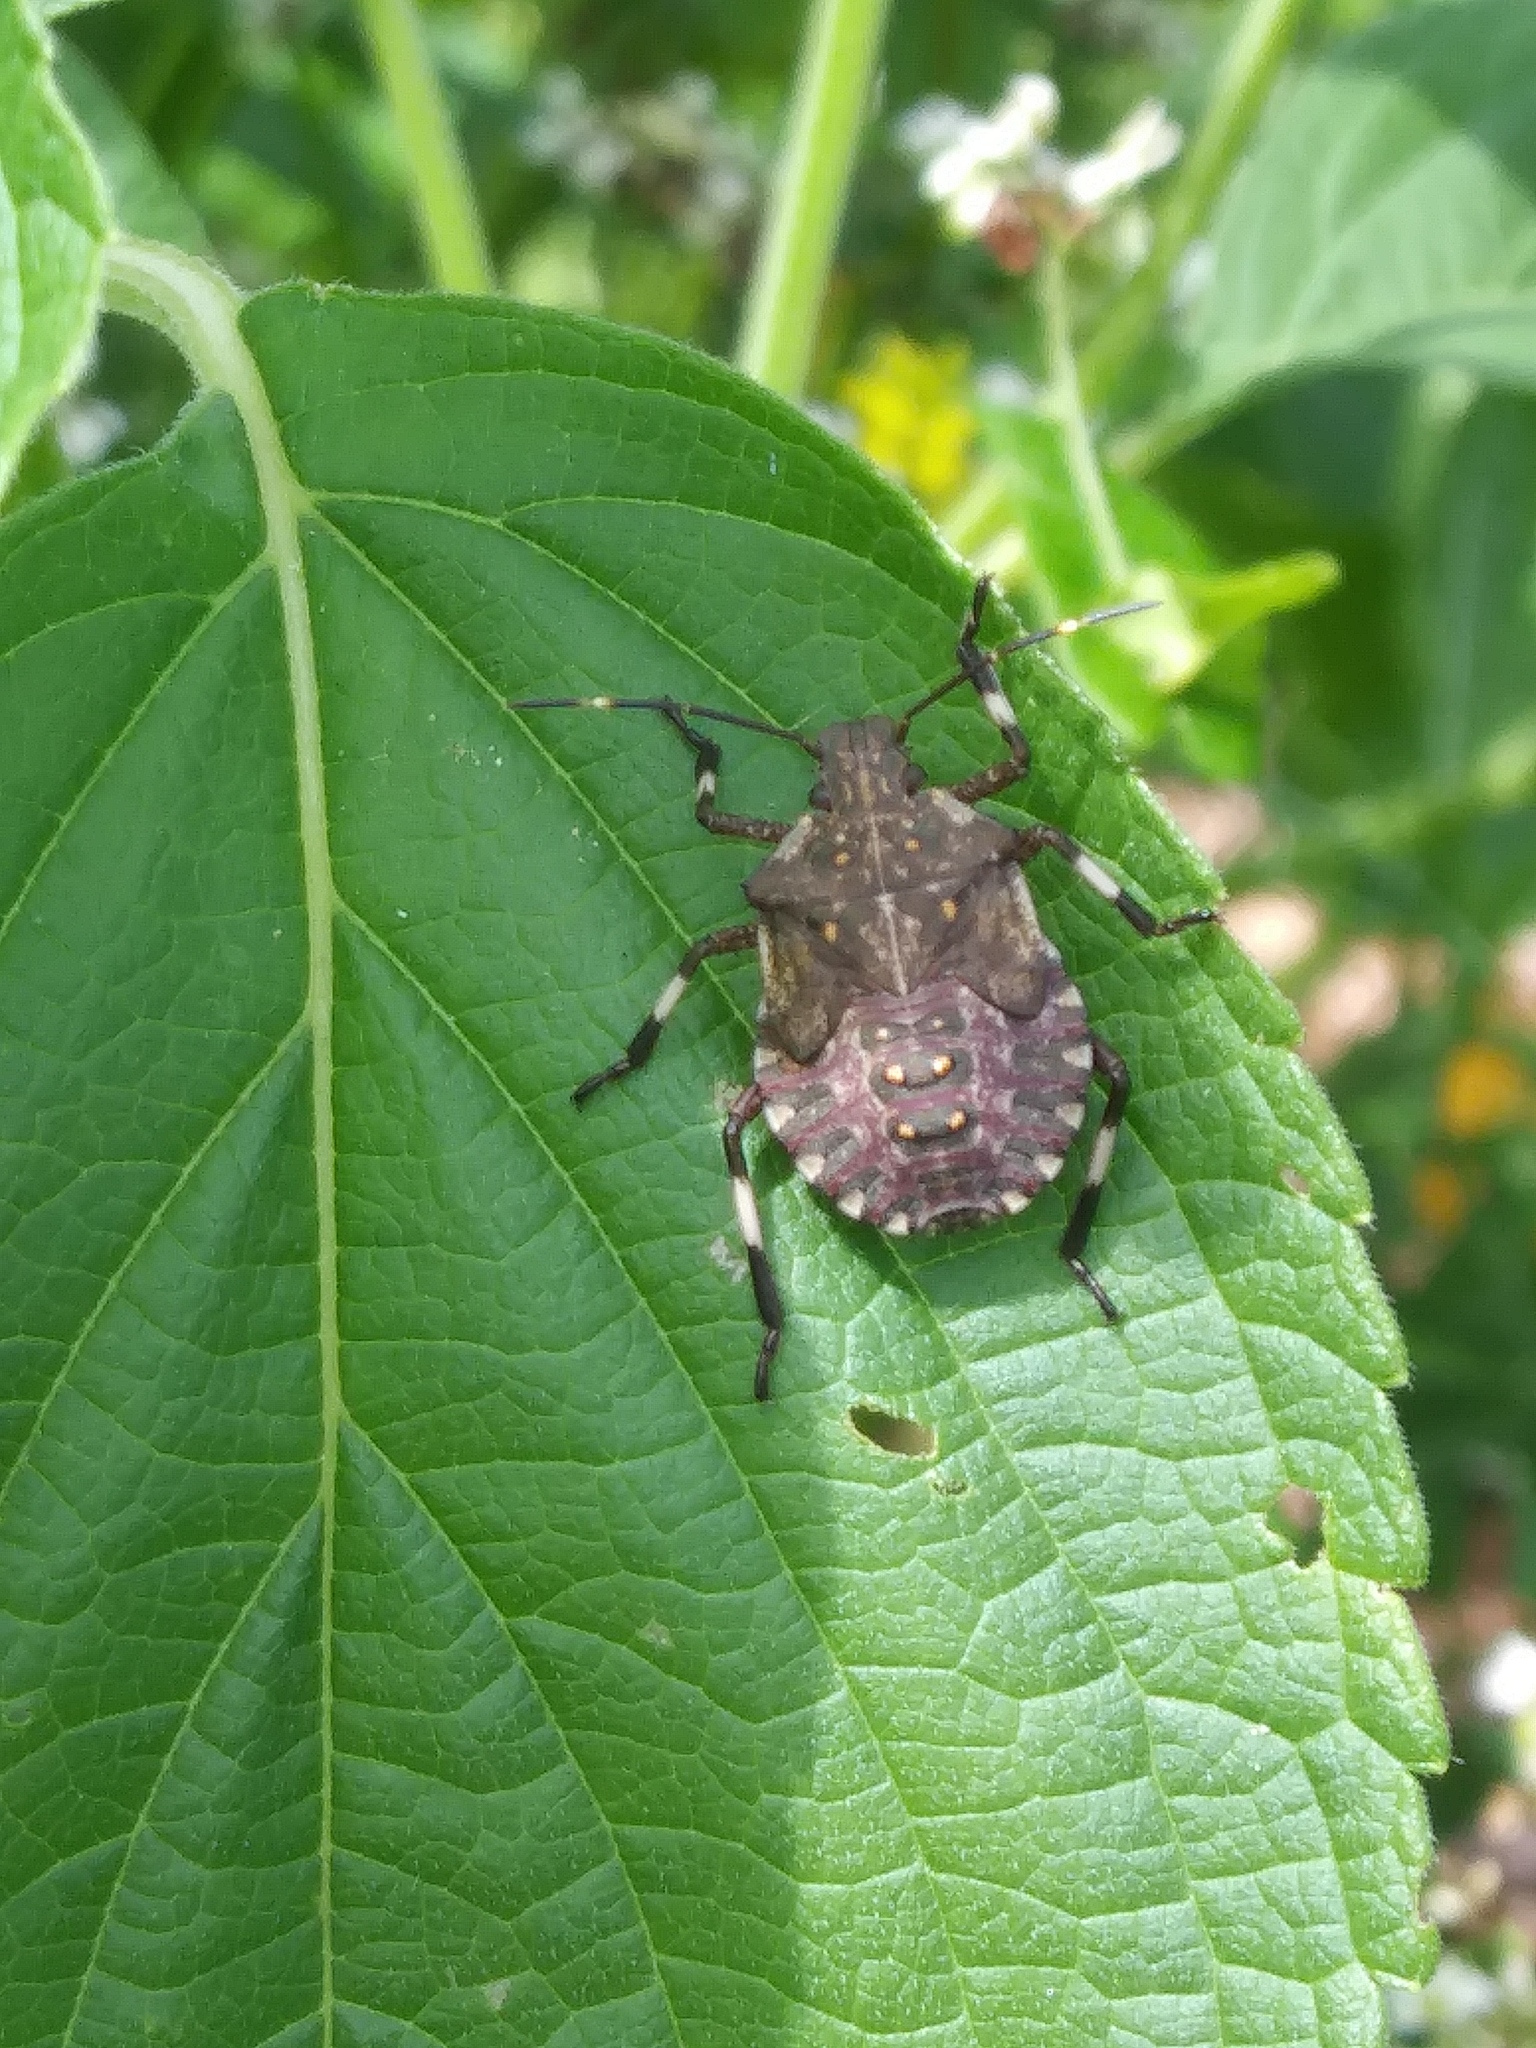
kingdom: Animalia
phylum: Arthropoda
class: Insecta
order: Hemiptera
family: Pentatomidae
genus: Halyomorpha
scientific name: Halyomorpha halys
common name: Brown marmorated stink bug
